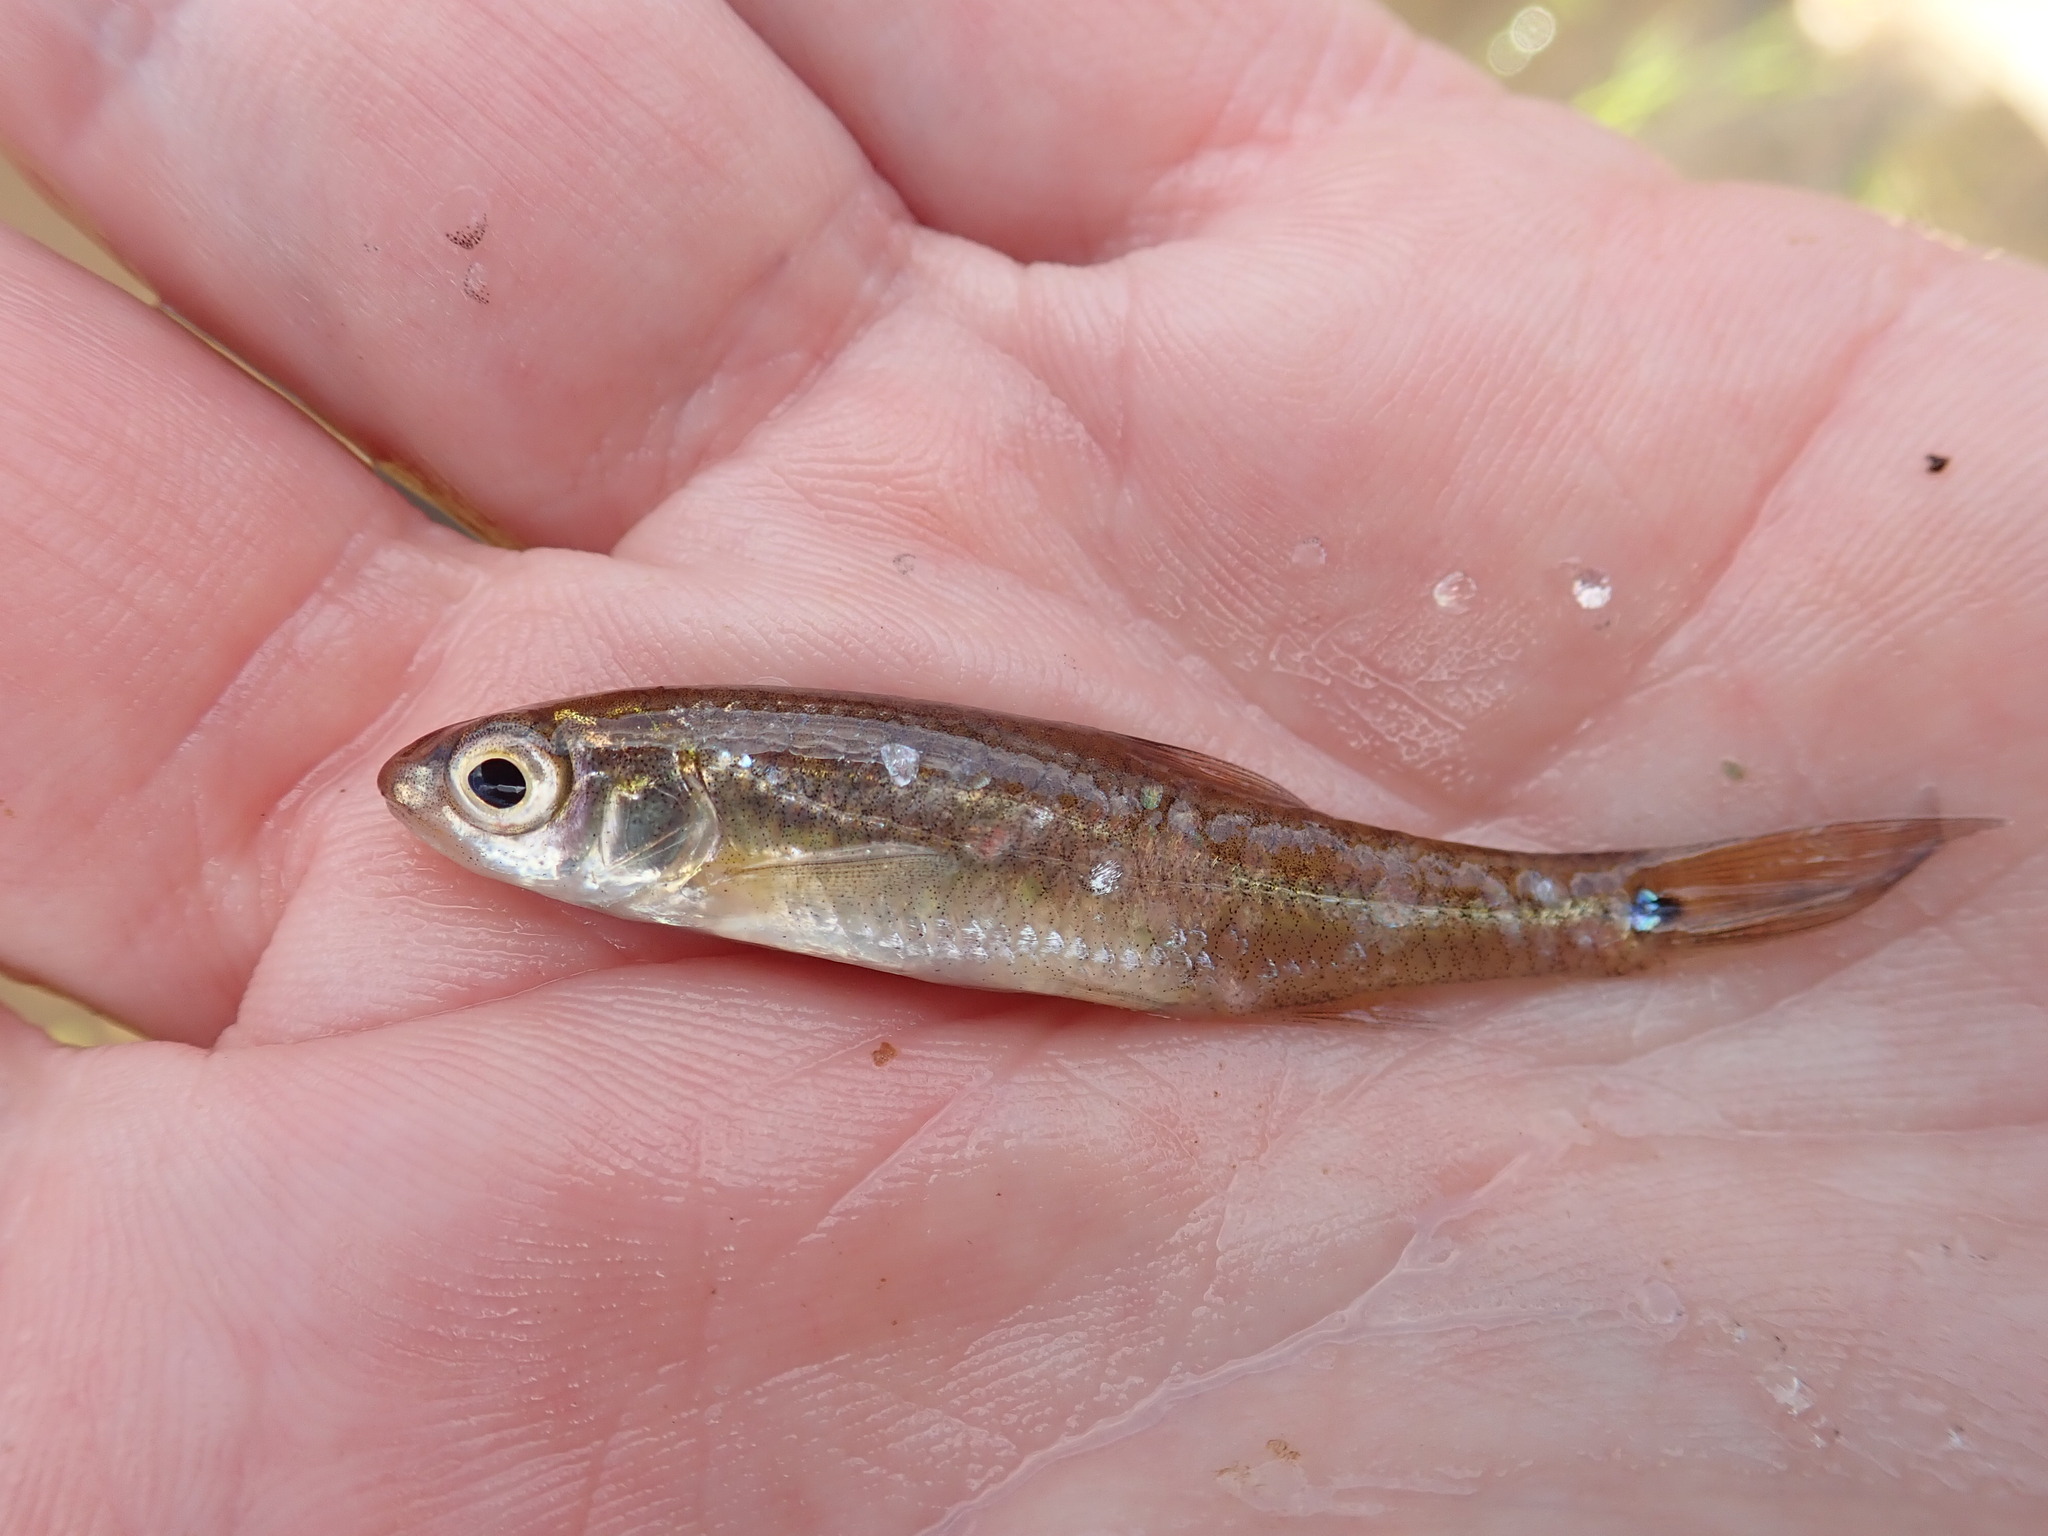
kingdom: Animalia
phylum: Chordata
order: Cypriniformes
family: Cyprinidae
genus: Notropis
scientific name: Notropis
